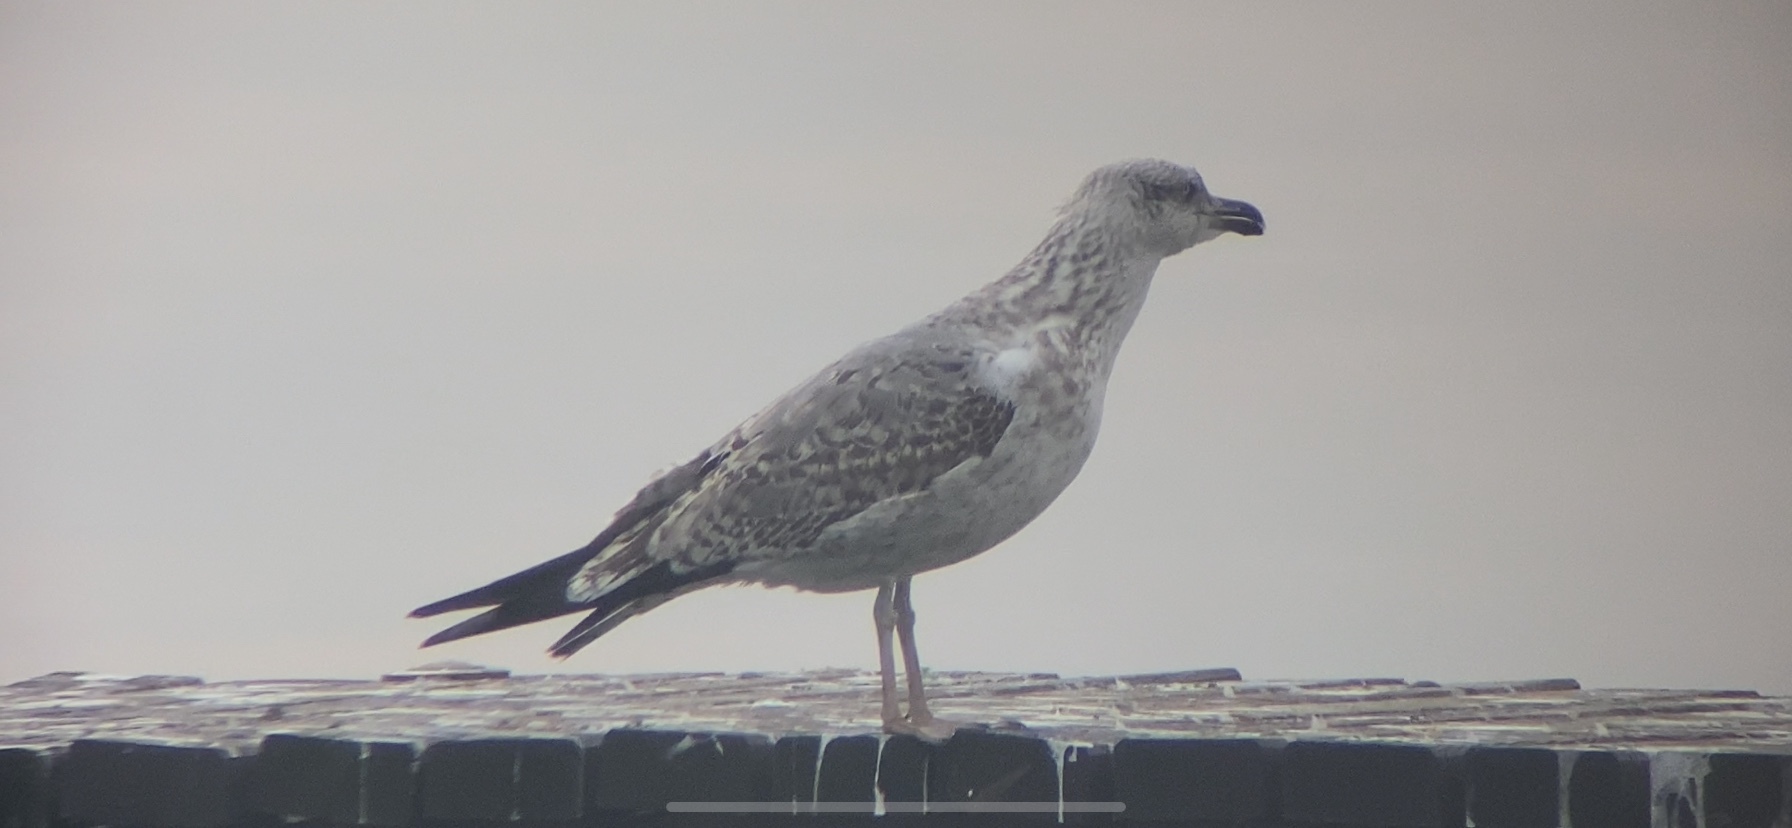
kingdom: Animalia
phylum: Chordata
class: Aves
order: Charadriiformes
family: Laridae
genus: Larus
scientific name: Larus michahellis
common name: Yellow-legged gull
